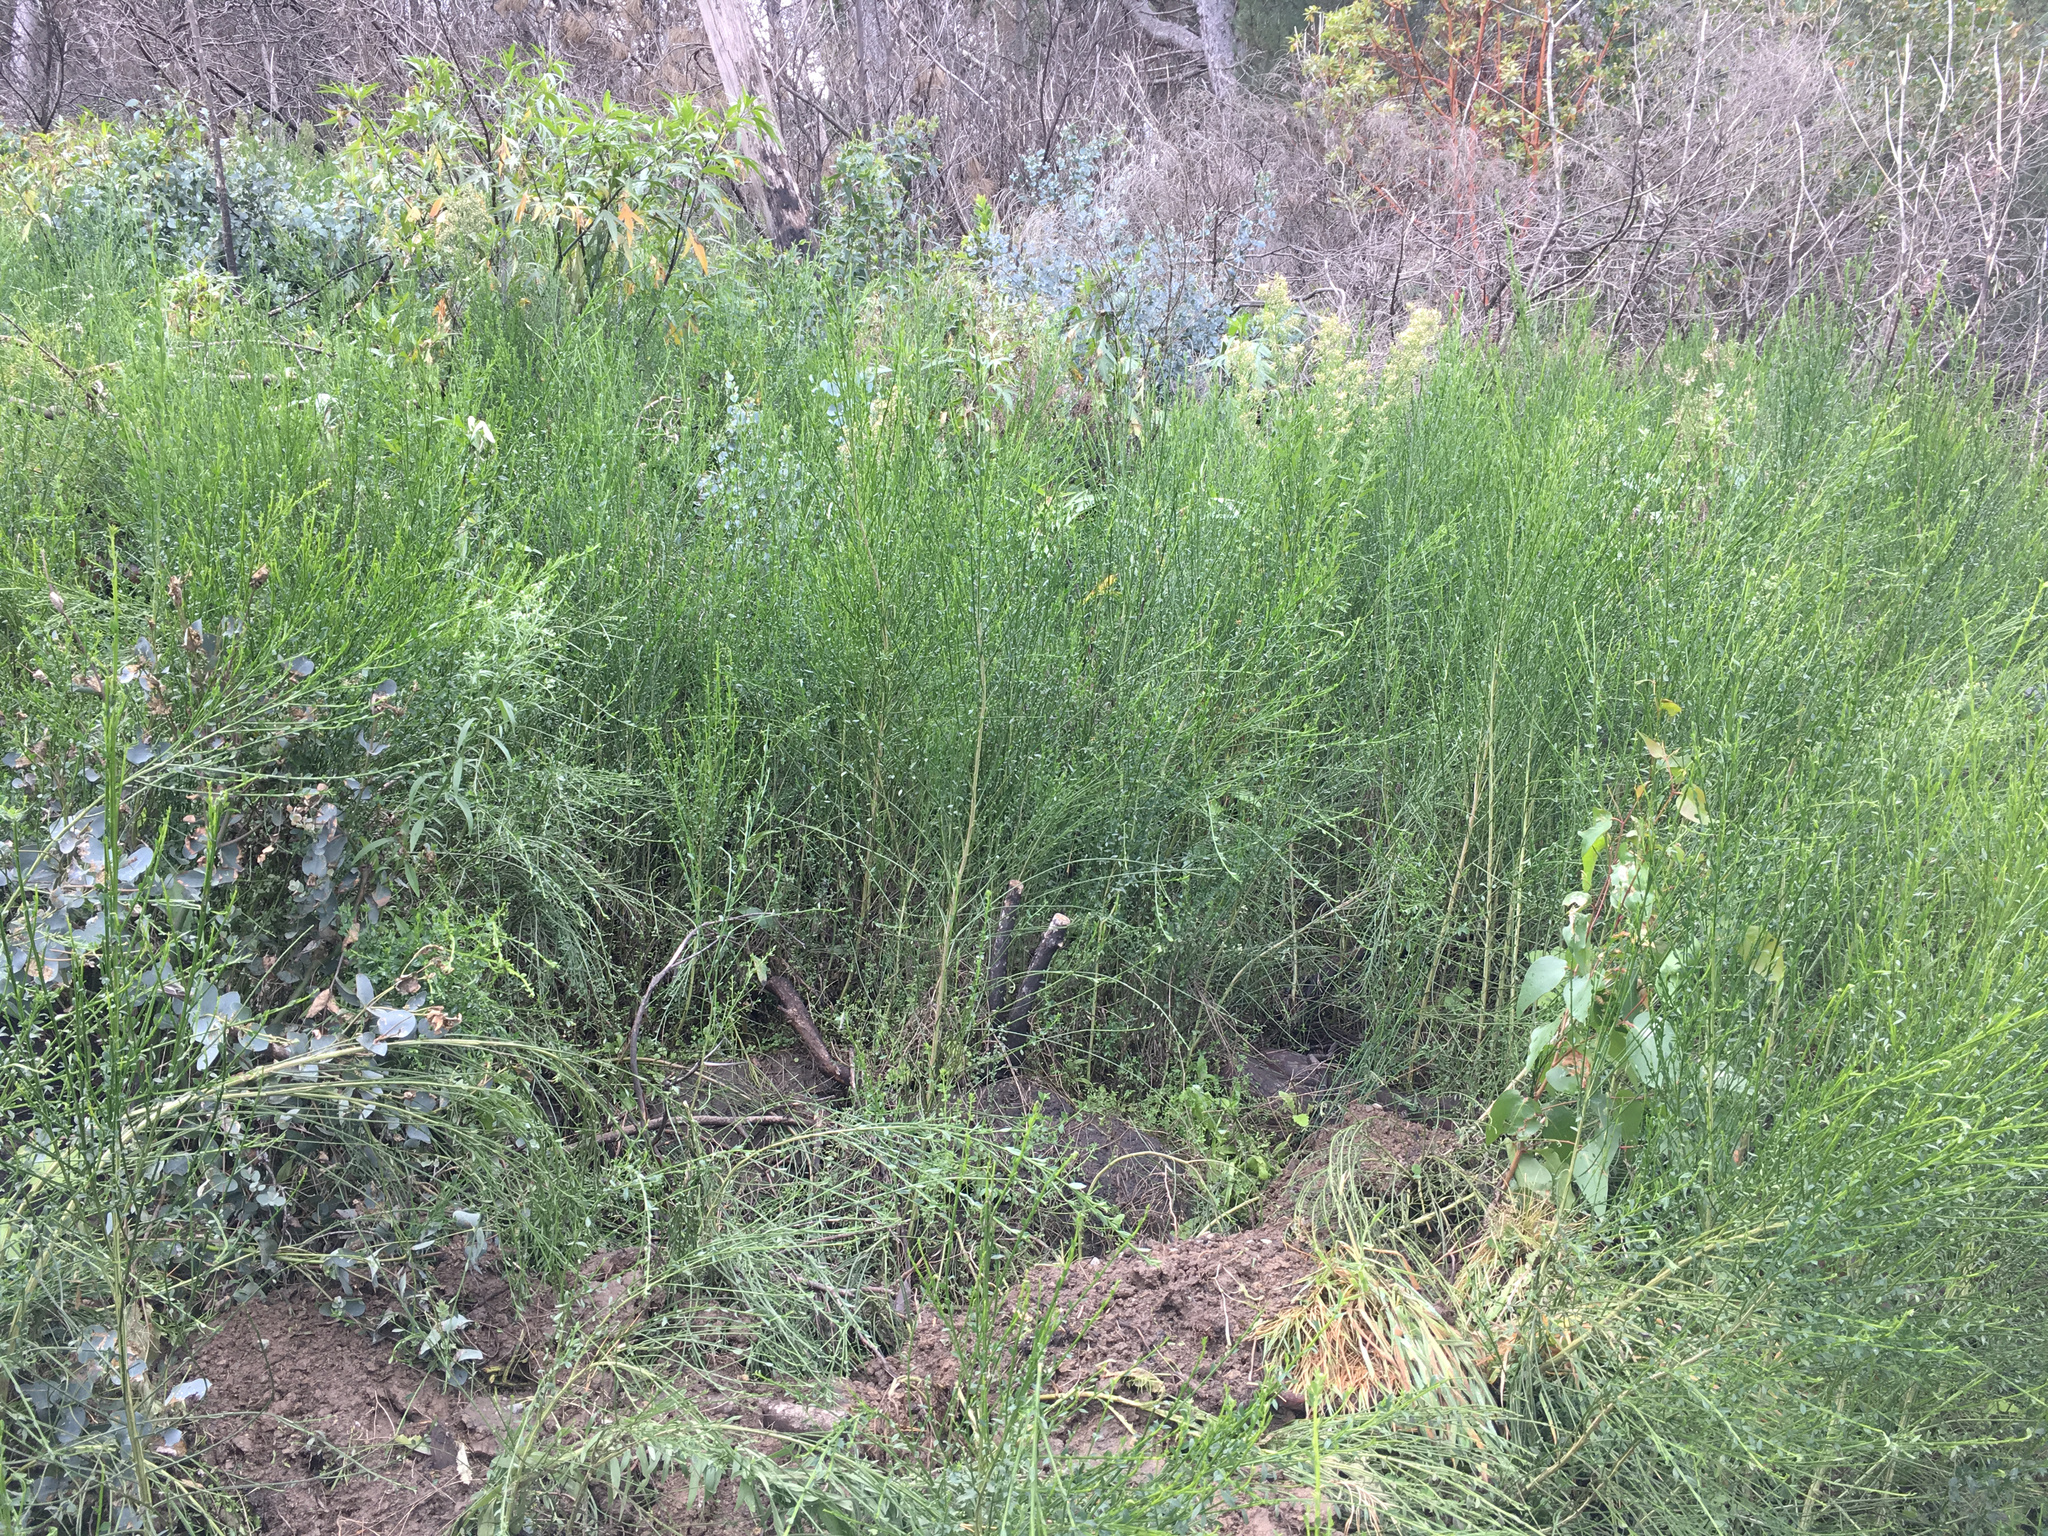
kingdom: Plantae
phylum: Tracheophyta
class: Magnoliopsida
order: Fabales
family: Fabaceae
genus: Cytisus
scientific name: Cytisus scoparius
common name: Scotch broom
